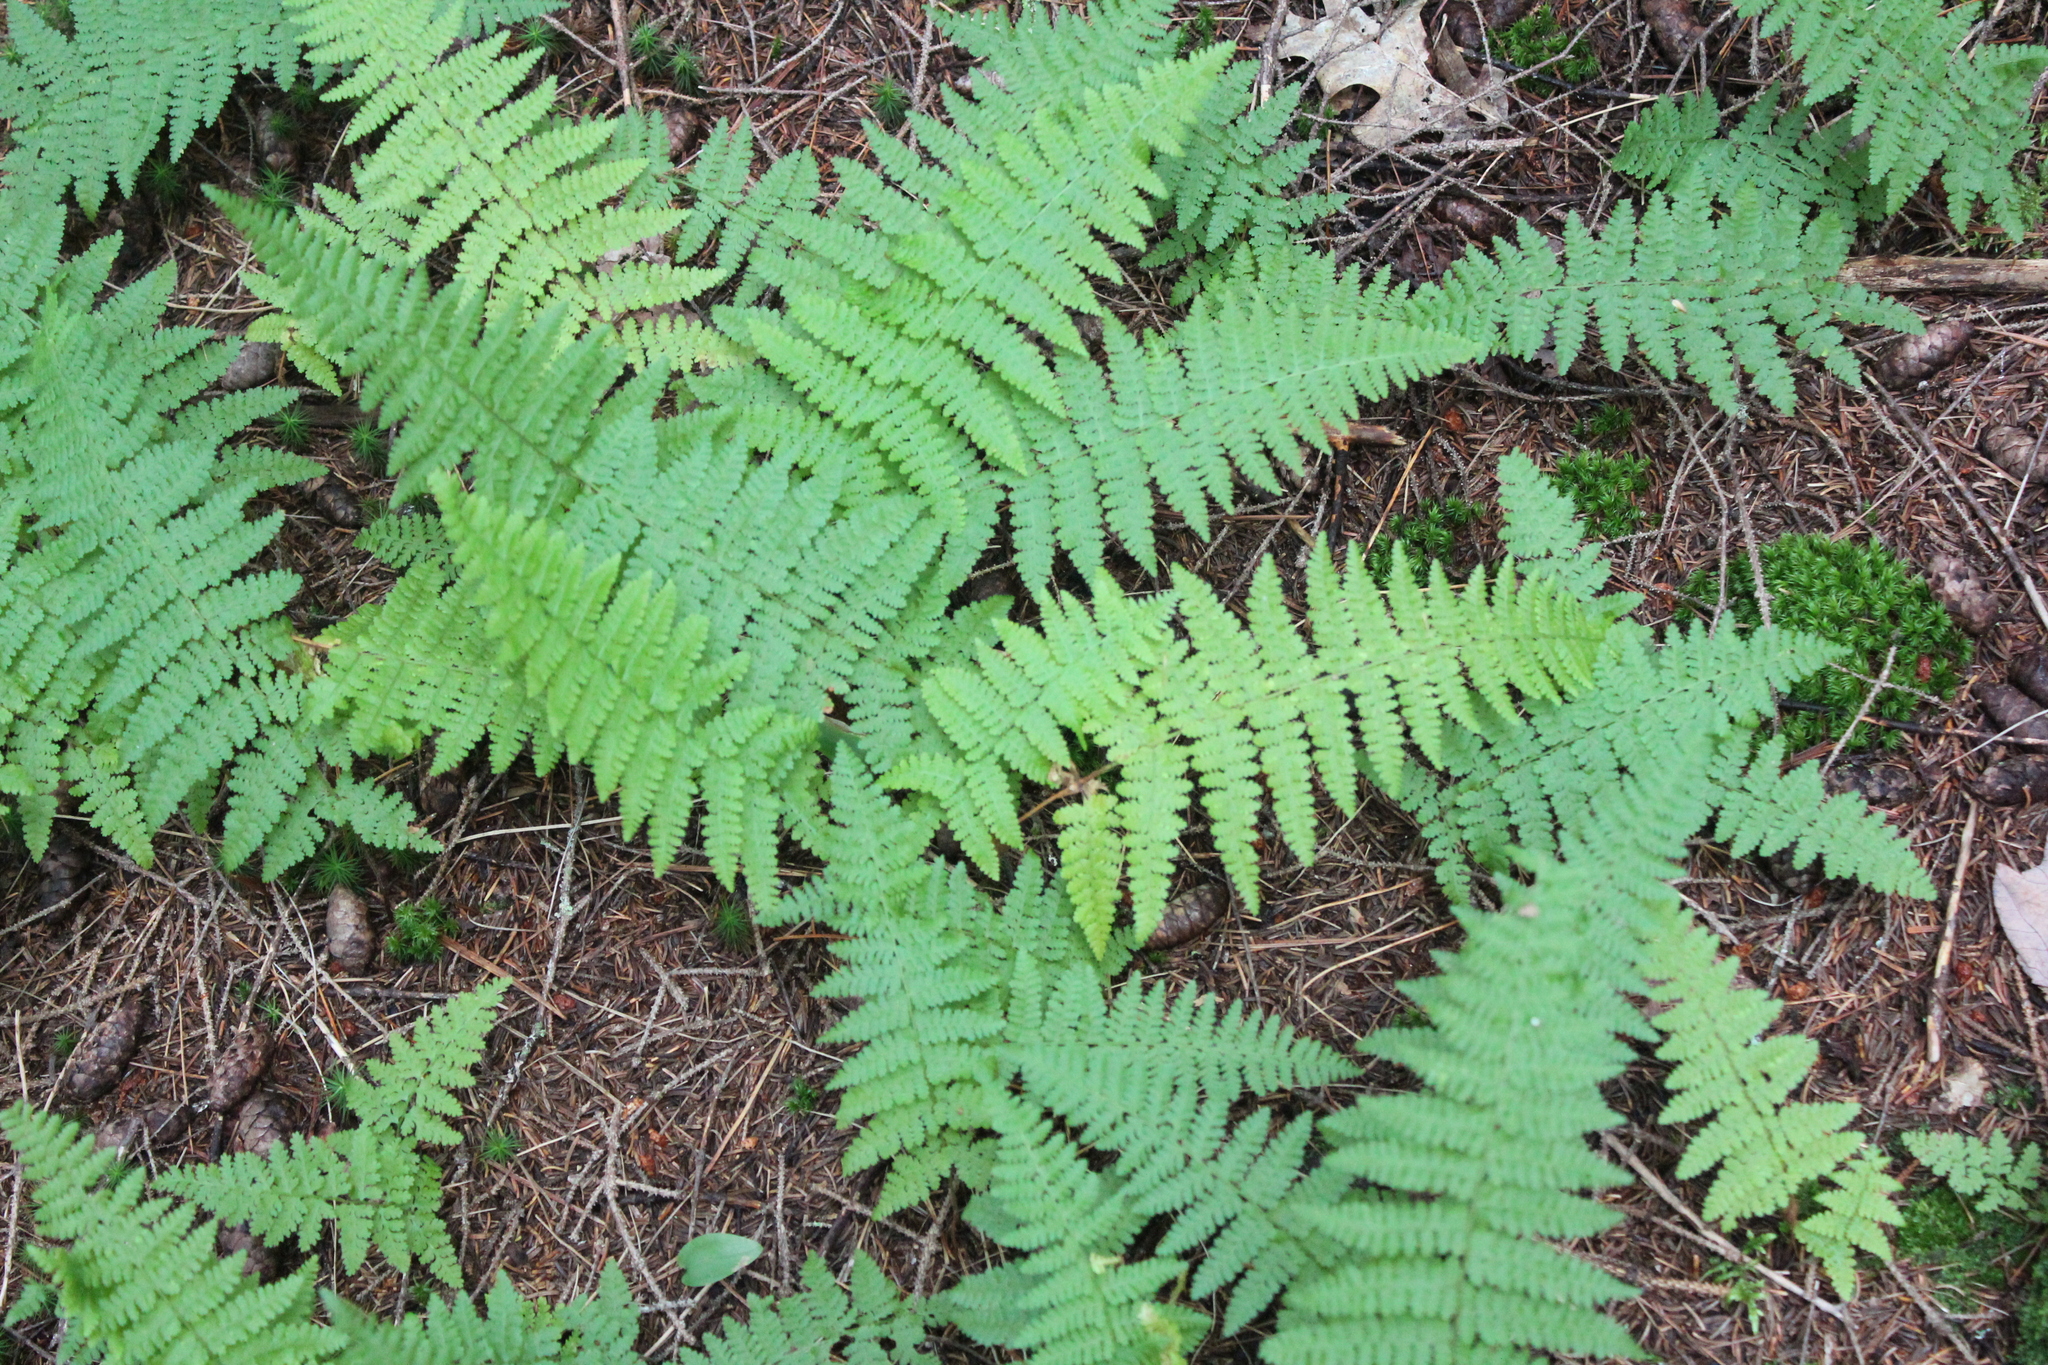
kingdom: Plantae
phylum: Tracheophyta
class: Polypodiopsida
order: Polypodiales
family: Dennstaedtiaceae
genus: Sitobolium
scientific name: Sitobolium punctilobum
